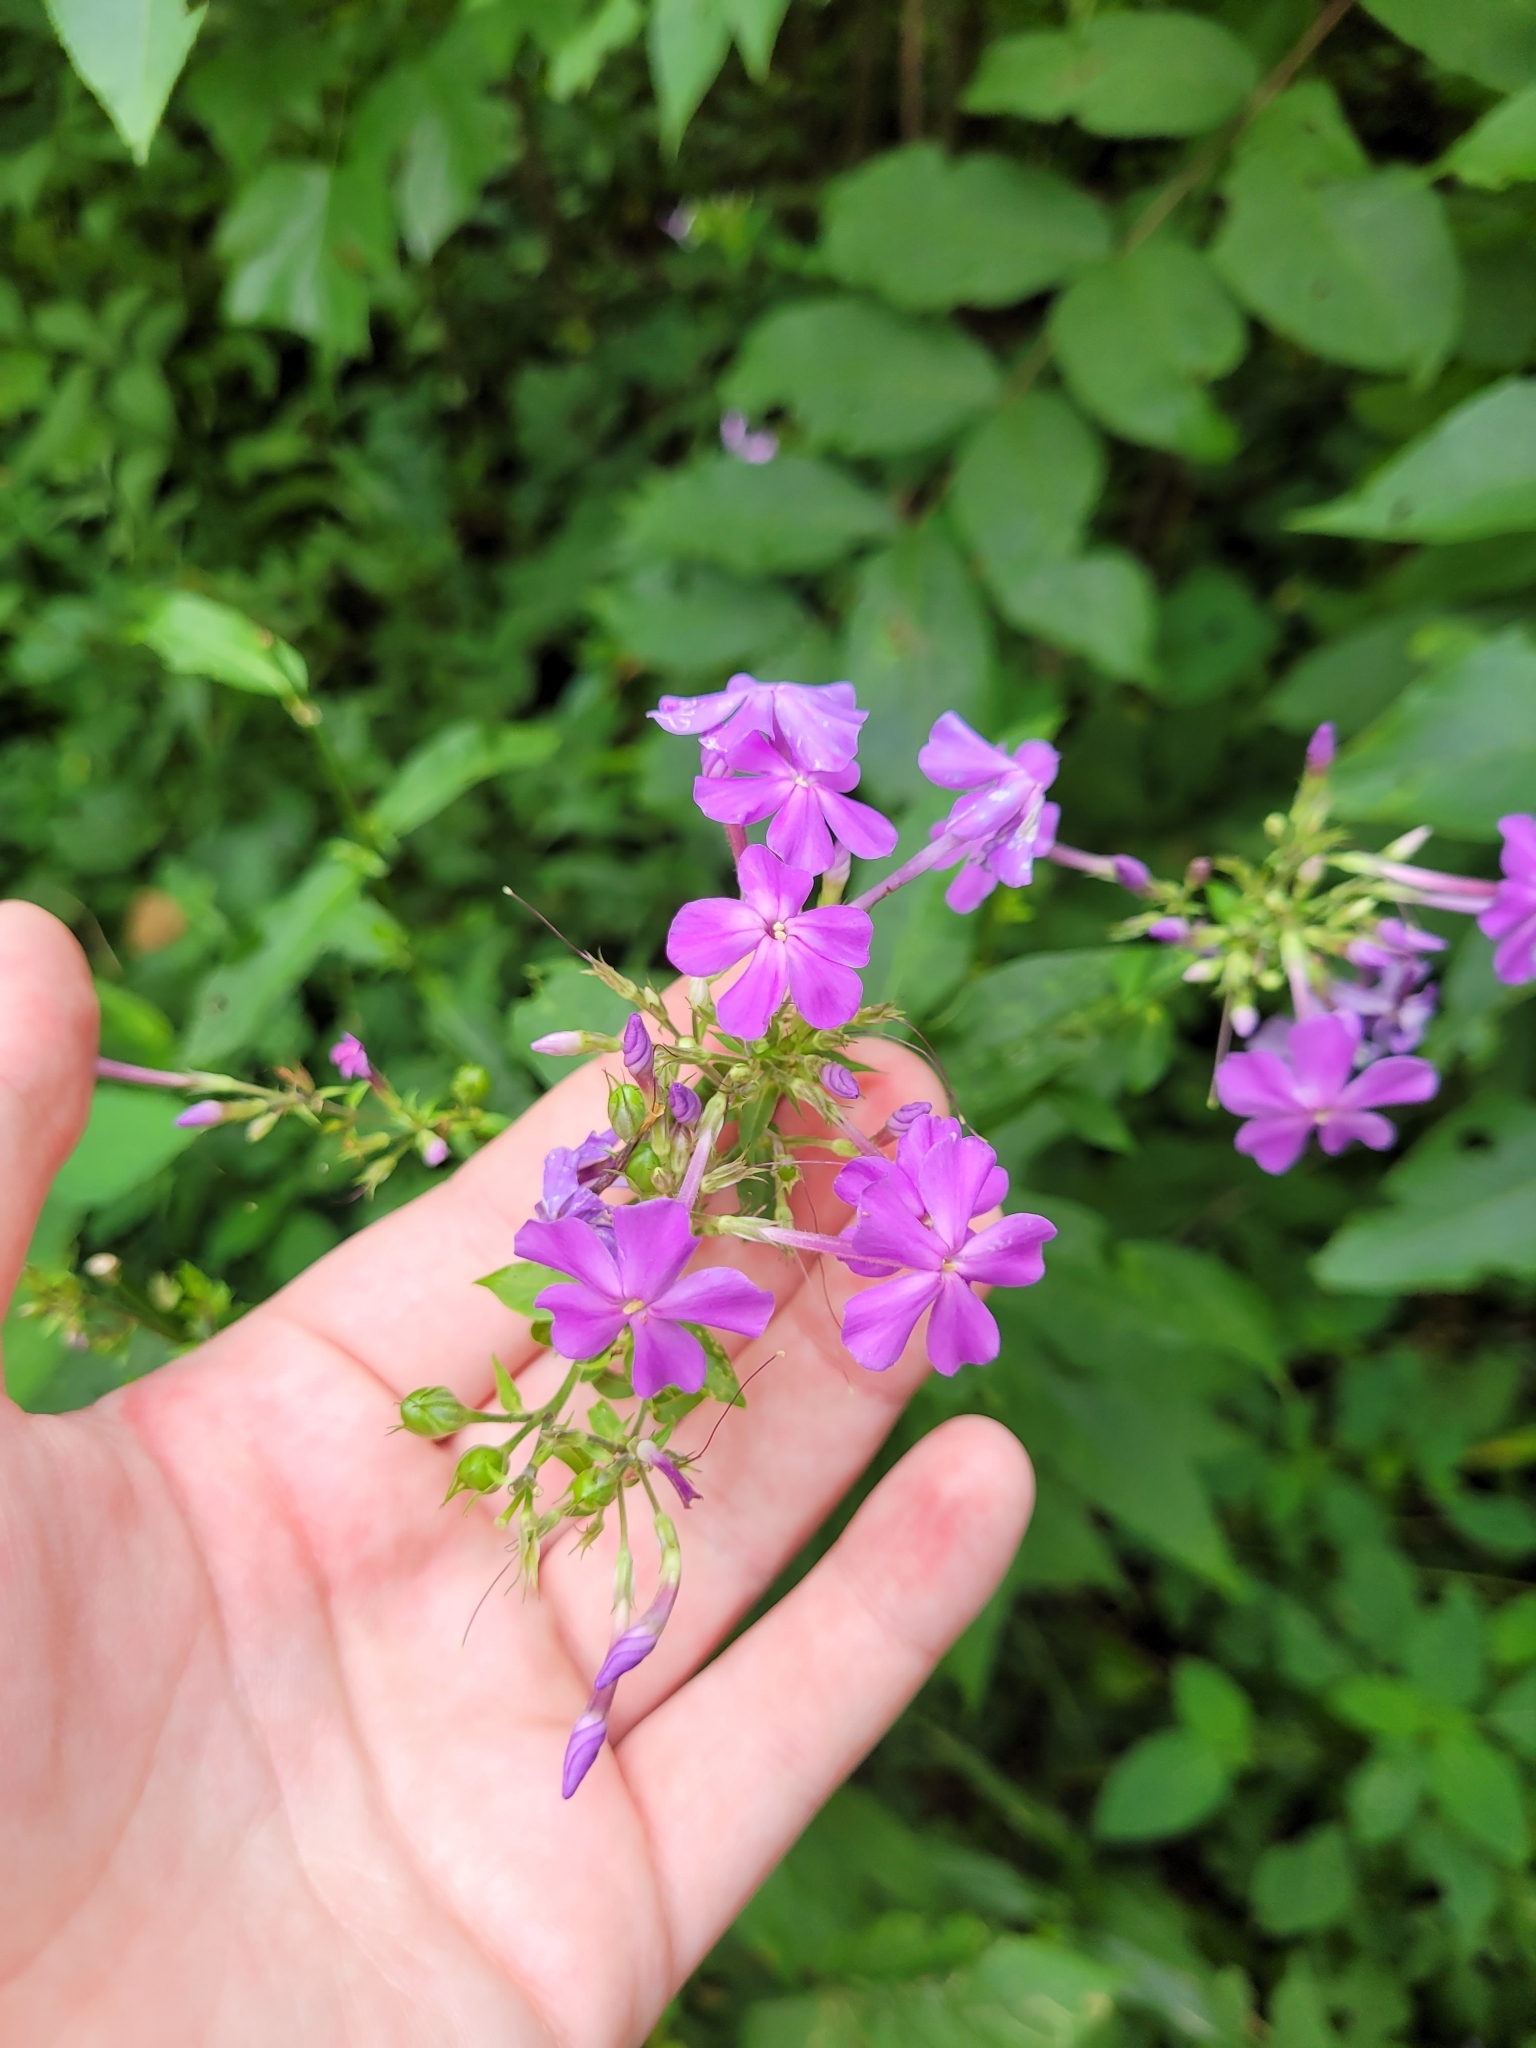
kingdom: Plantae
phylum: Tracheophyta
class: Magnoliopsida
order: Ericales
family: Polemoniaceae
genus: Phlox
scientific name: Phlox paniculata
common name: Fall phlox
